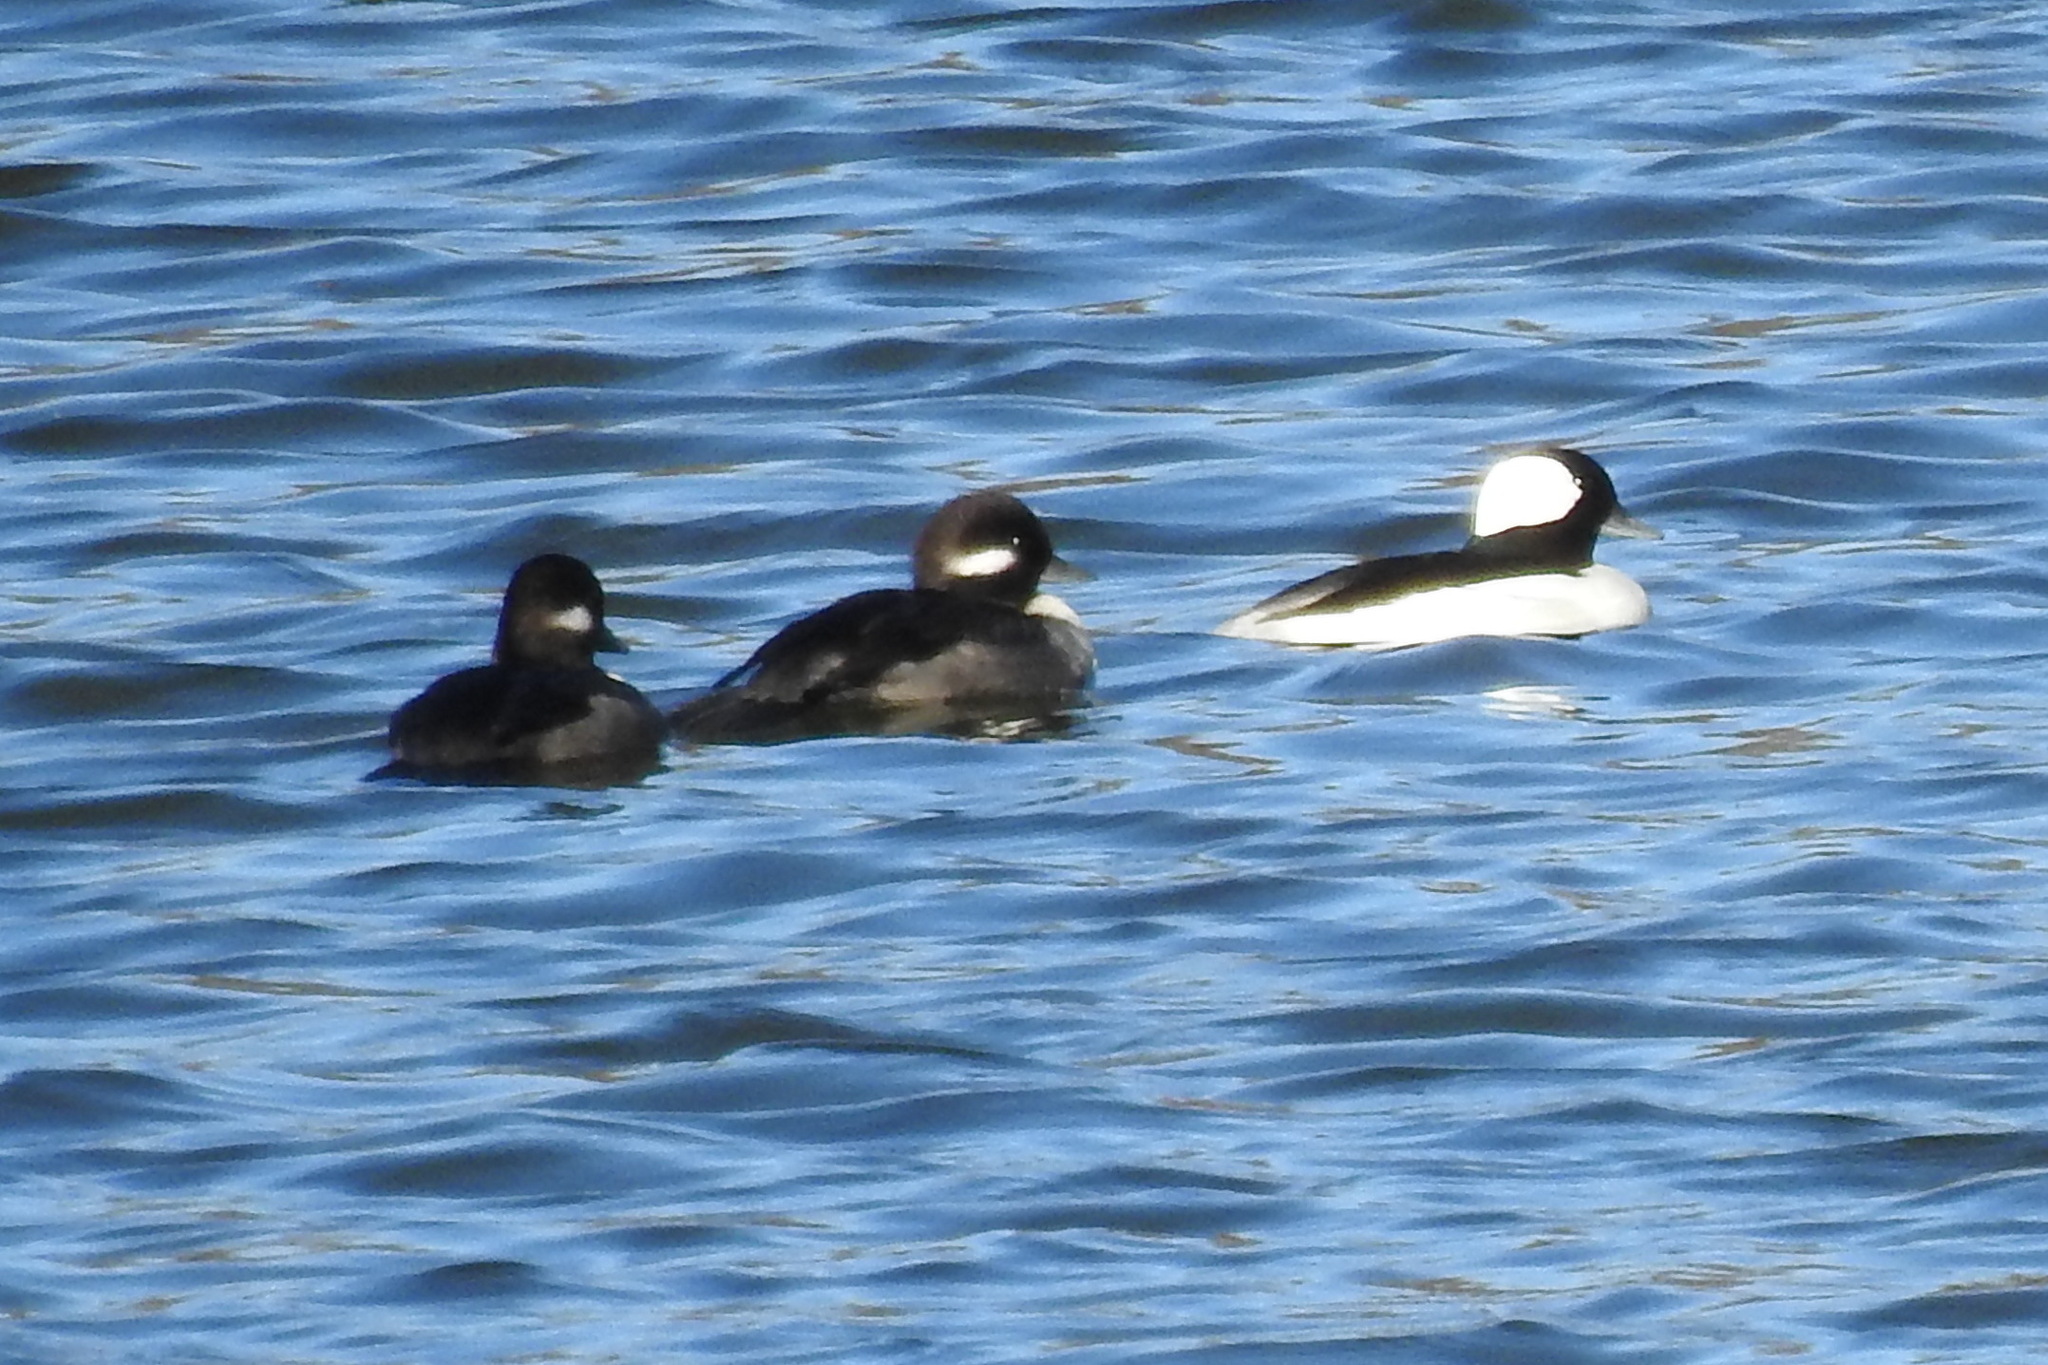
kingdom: Animalia
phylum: Chordata
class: Aves
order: Anseriformes
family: Anatidae
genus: Bucephala
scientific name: Bucephala albeola
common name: Bufflehead
